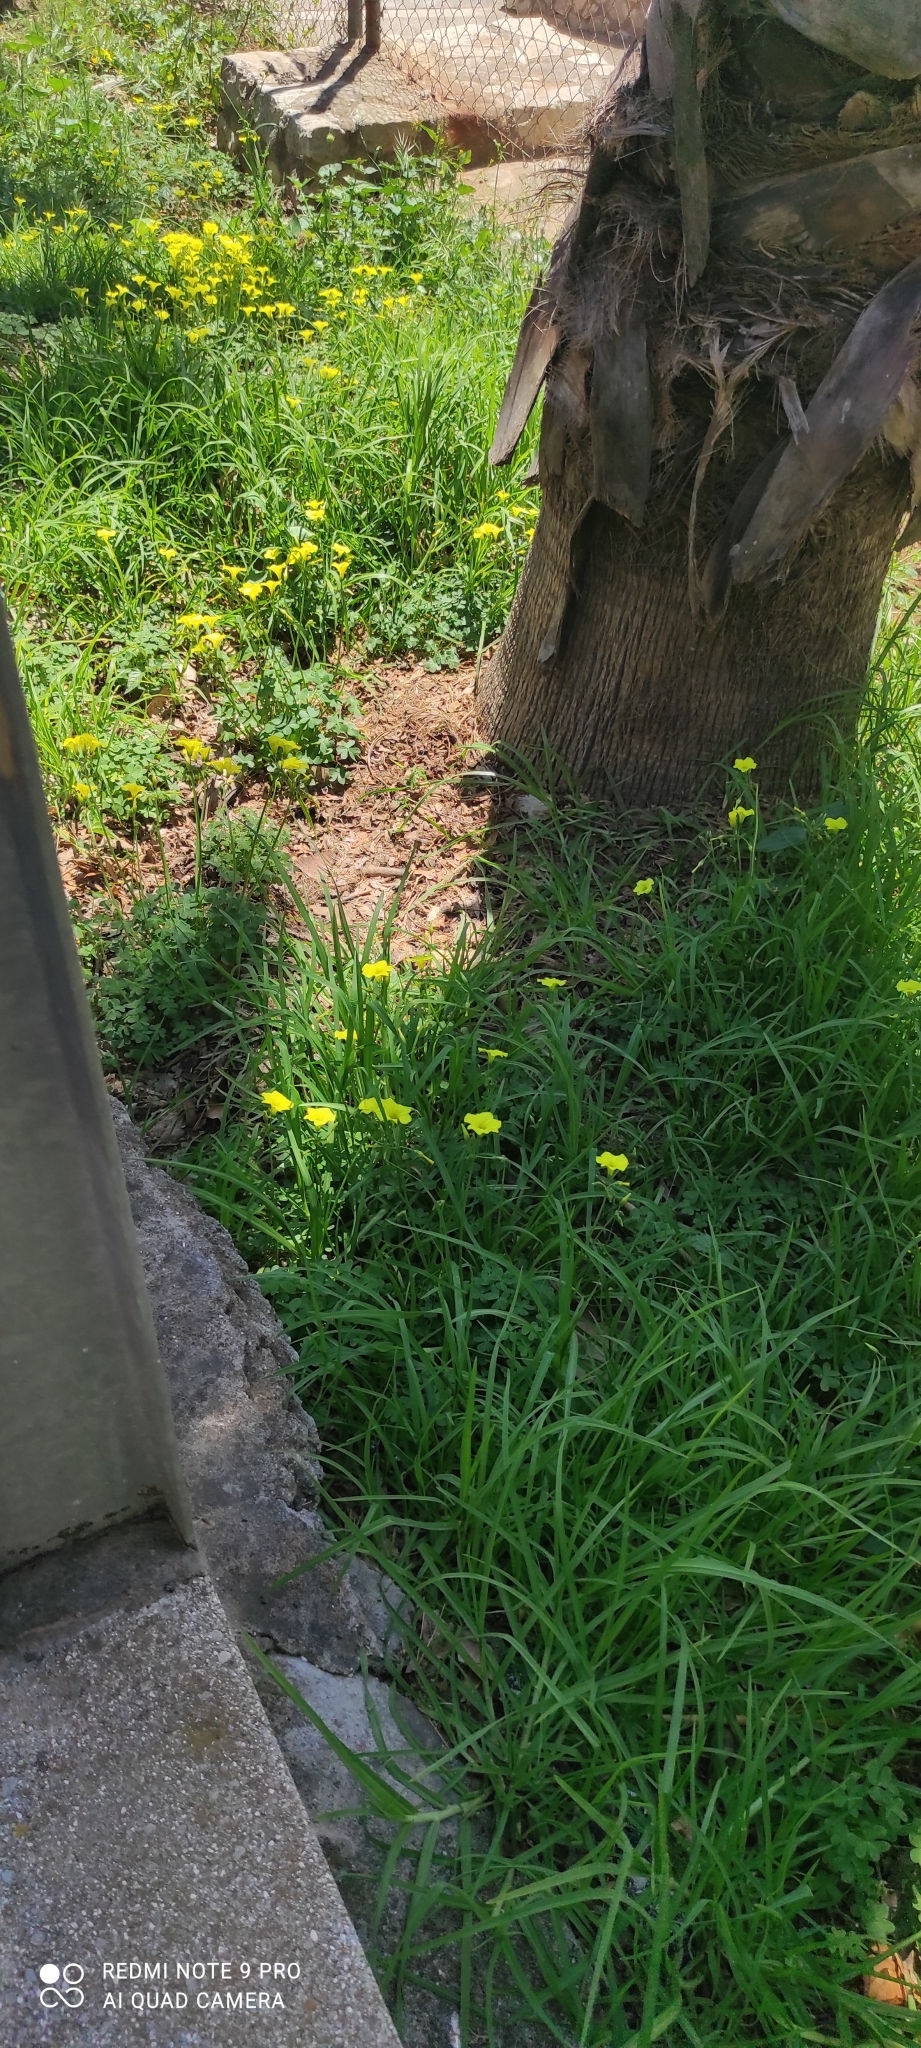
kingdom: Plantae
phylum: Tracheophyta
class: Magnoliopsida
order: Oxalidales
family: Oxalidaceae
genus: Oxalis
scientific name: Oxalis pes-caprae
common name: Bermuda-buttercup
